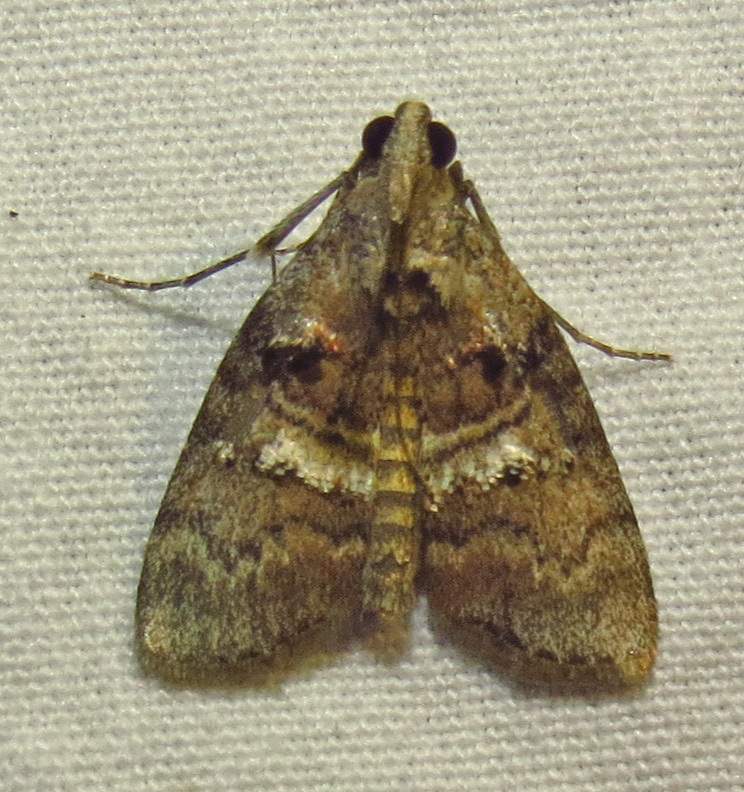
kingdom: Animalia
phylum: Arthropoda
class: Insecta
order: Lepidoptera
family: Pyralidae
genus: Pococera
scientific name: Pococera asperatella
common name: Maple webworm moth
